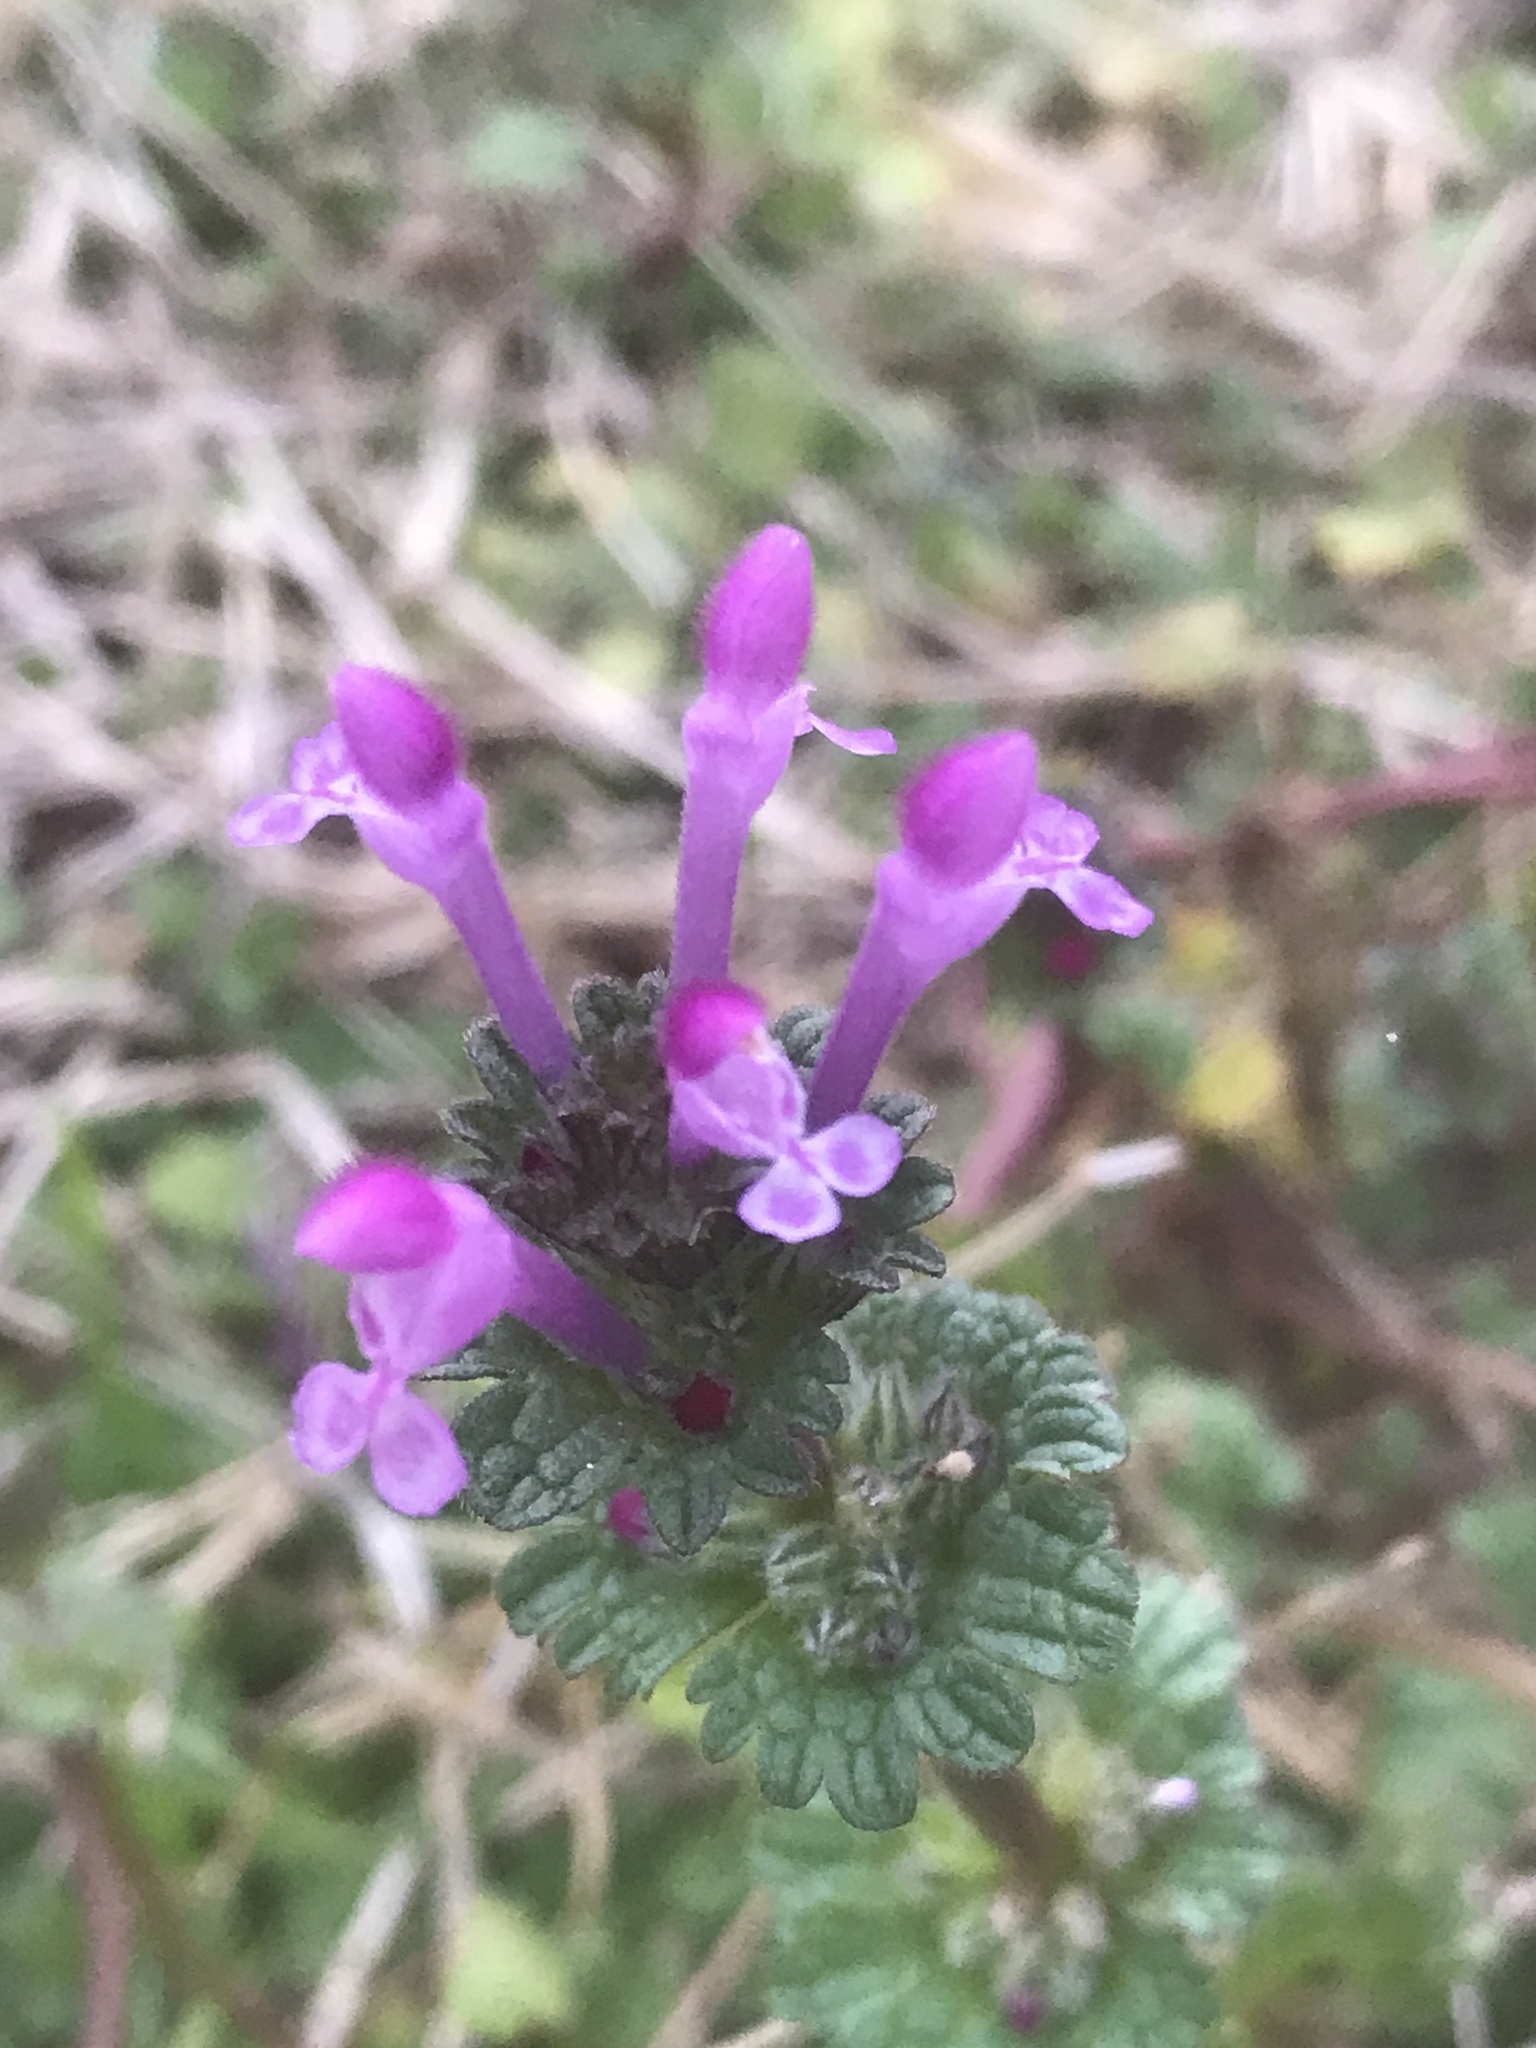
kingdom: Plantae
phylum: Tracheophyta
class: Magnoliopsida
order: Lamiales
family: Lamiaceae
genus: Lamium
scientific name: Lamium amplexicaule
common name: Henbit dead-nettle
